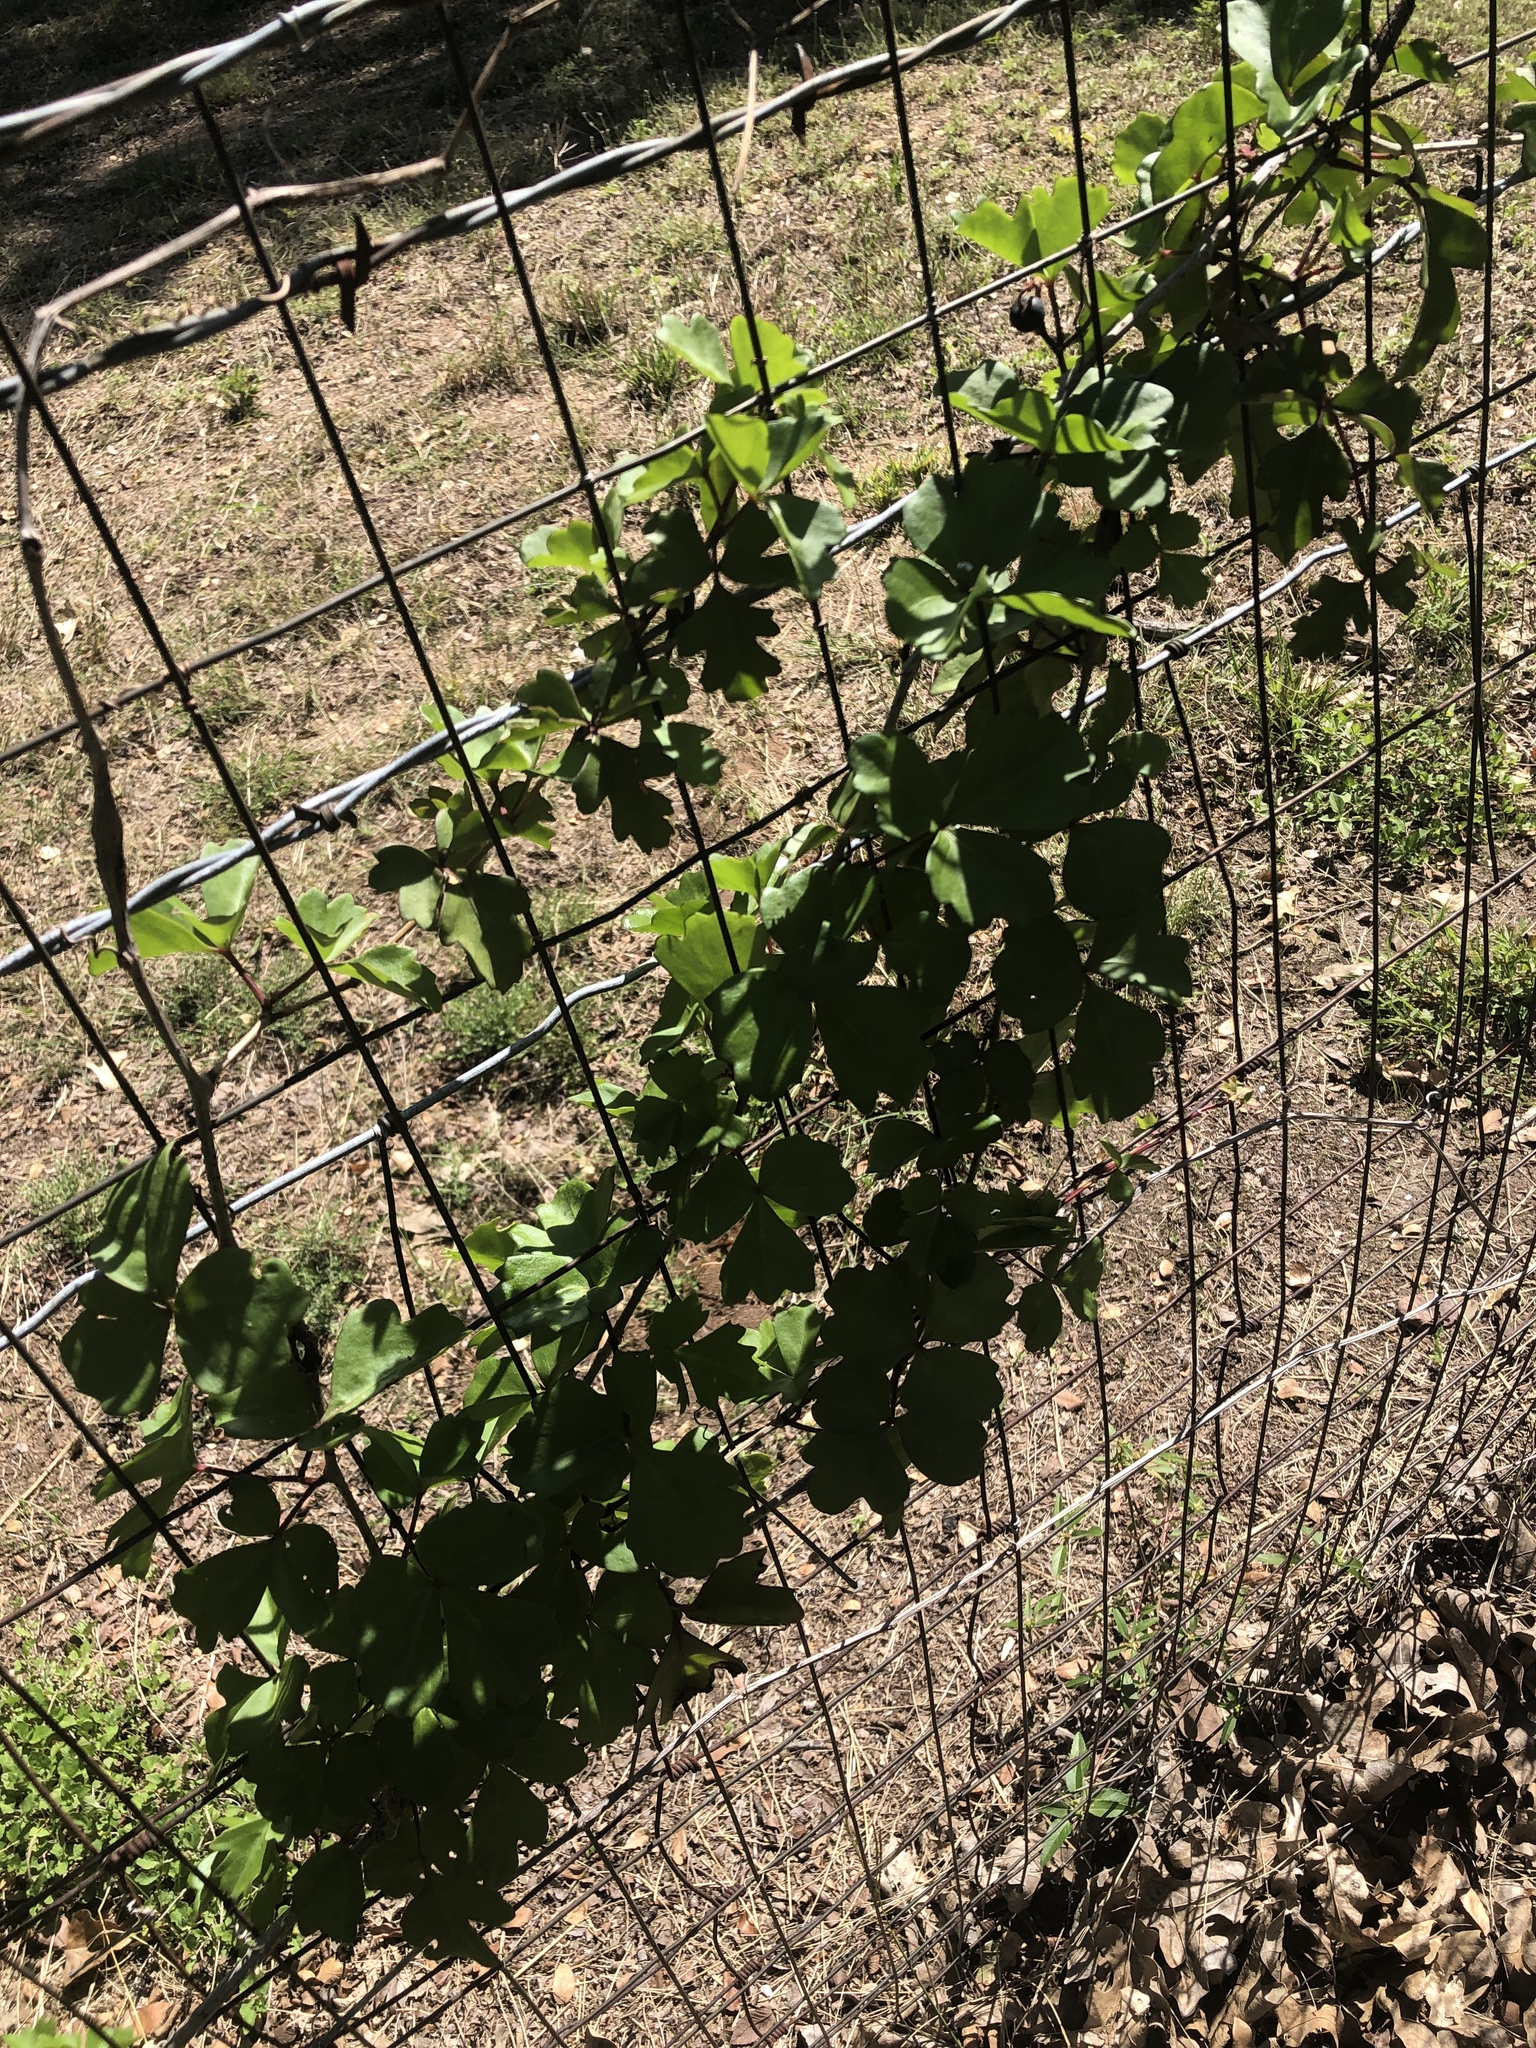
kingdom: Plantae
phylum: Tracheophyta
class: Magnoliopsida
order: Vitales
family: Vitaceae
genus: Cissus
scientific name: Cissus trifoliata
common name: Vine-sorrel
